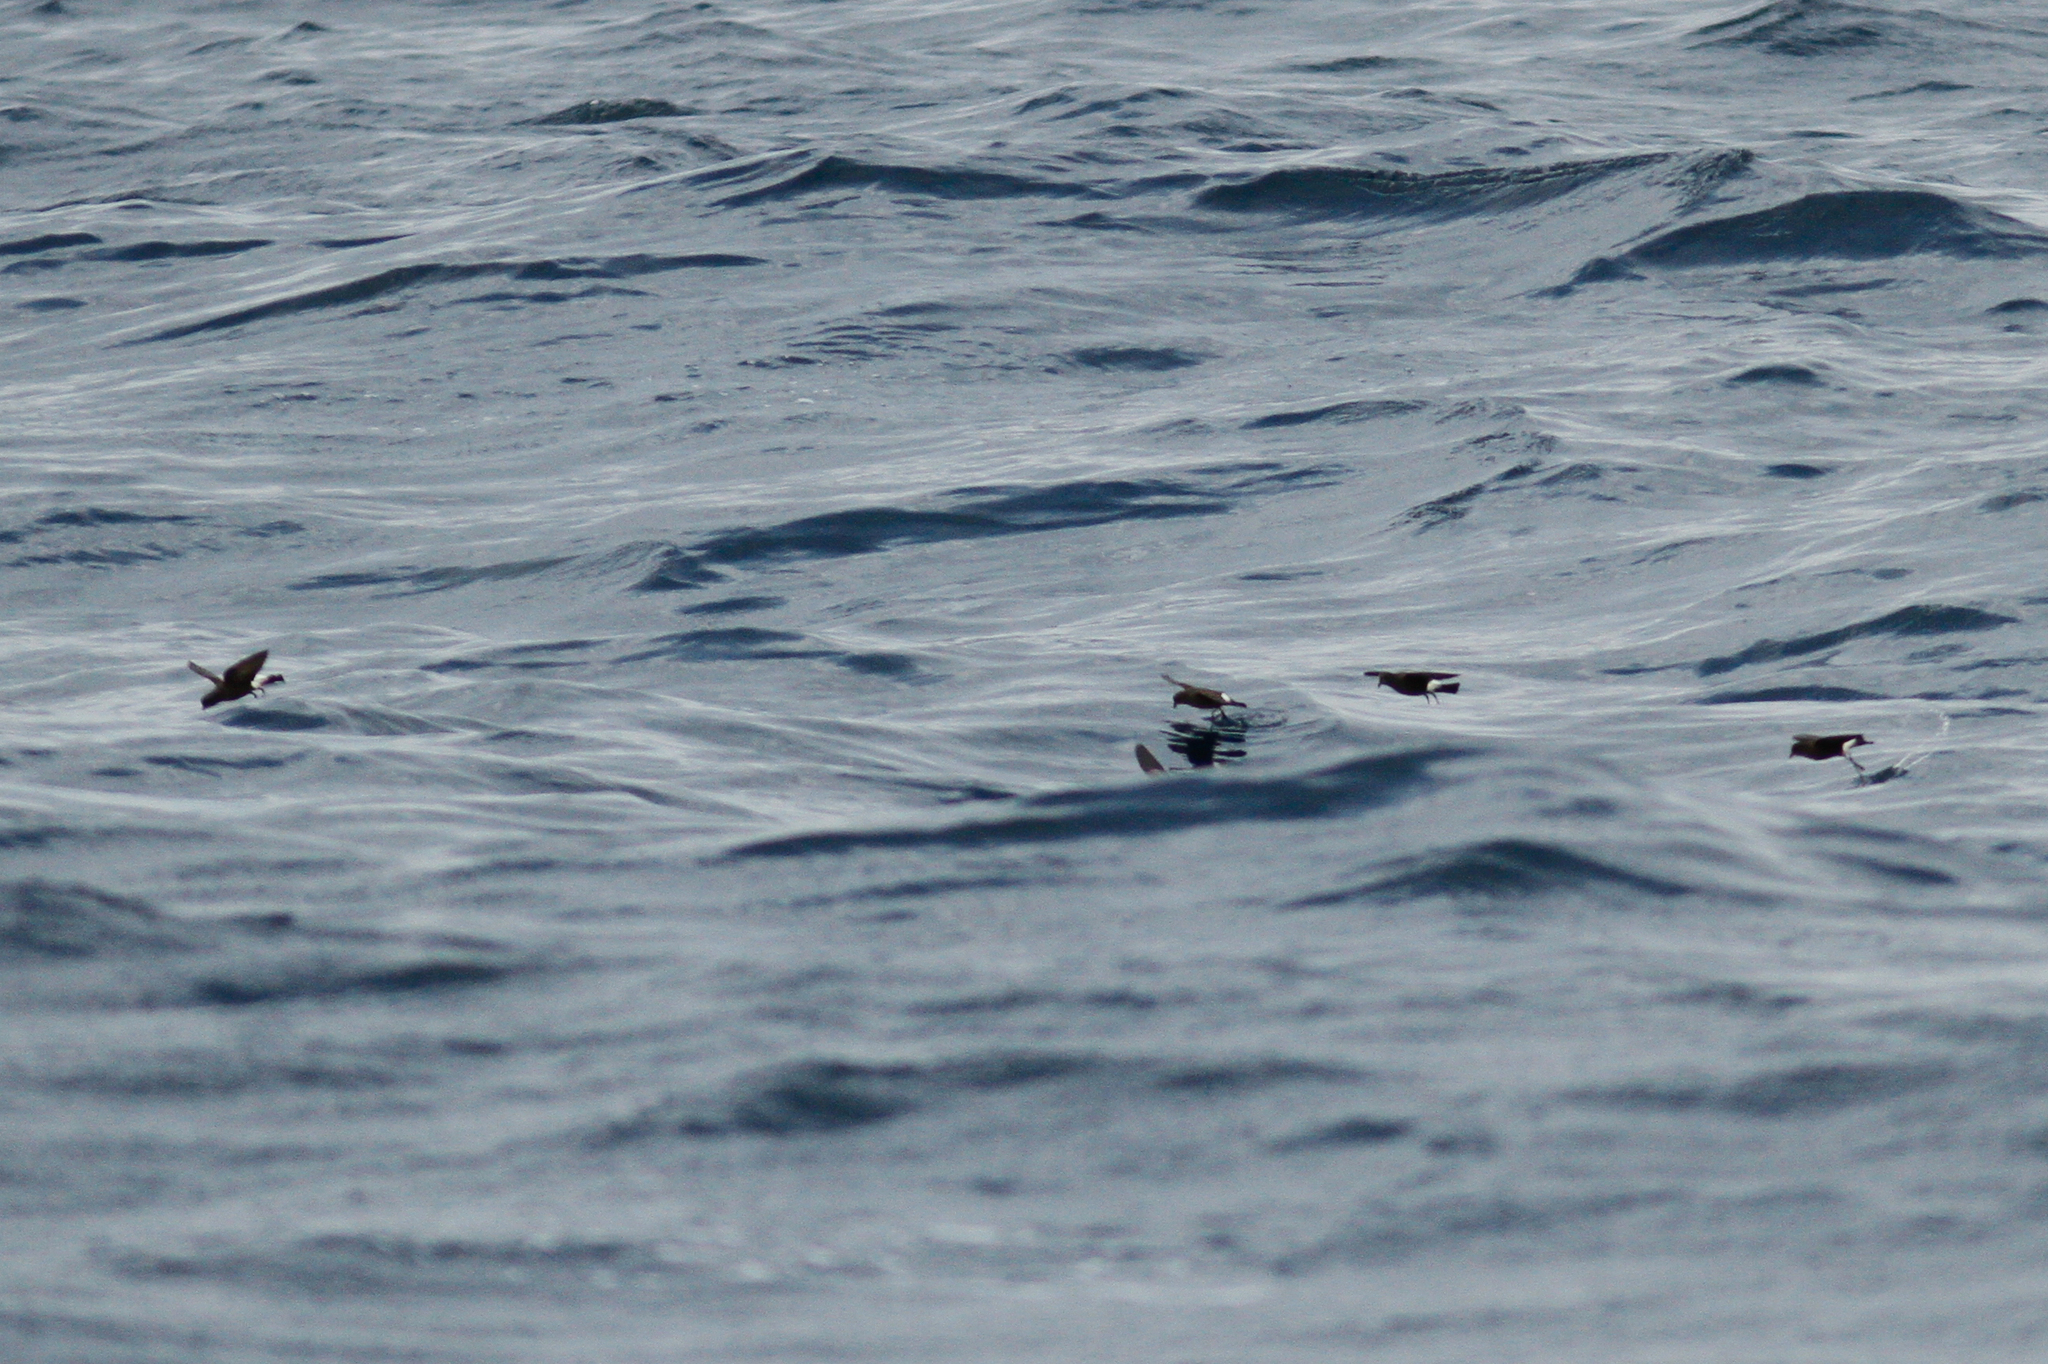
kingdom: Animalia
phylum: Chordata
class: Aves
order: Procellariiformes
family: Hydrobatidae
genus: Oceanites
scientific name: Oceanites oceanicus
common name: Wilson's storm petrel
